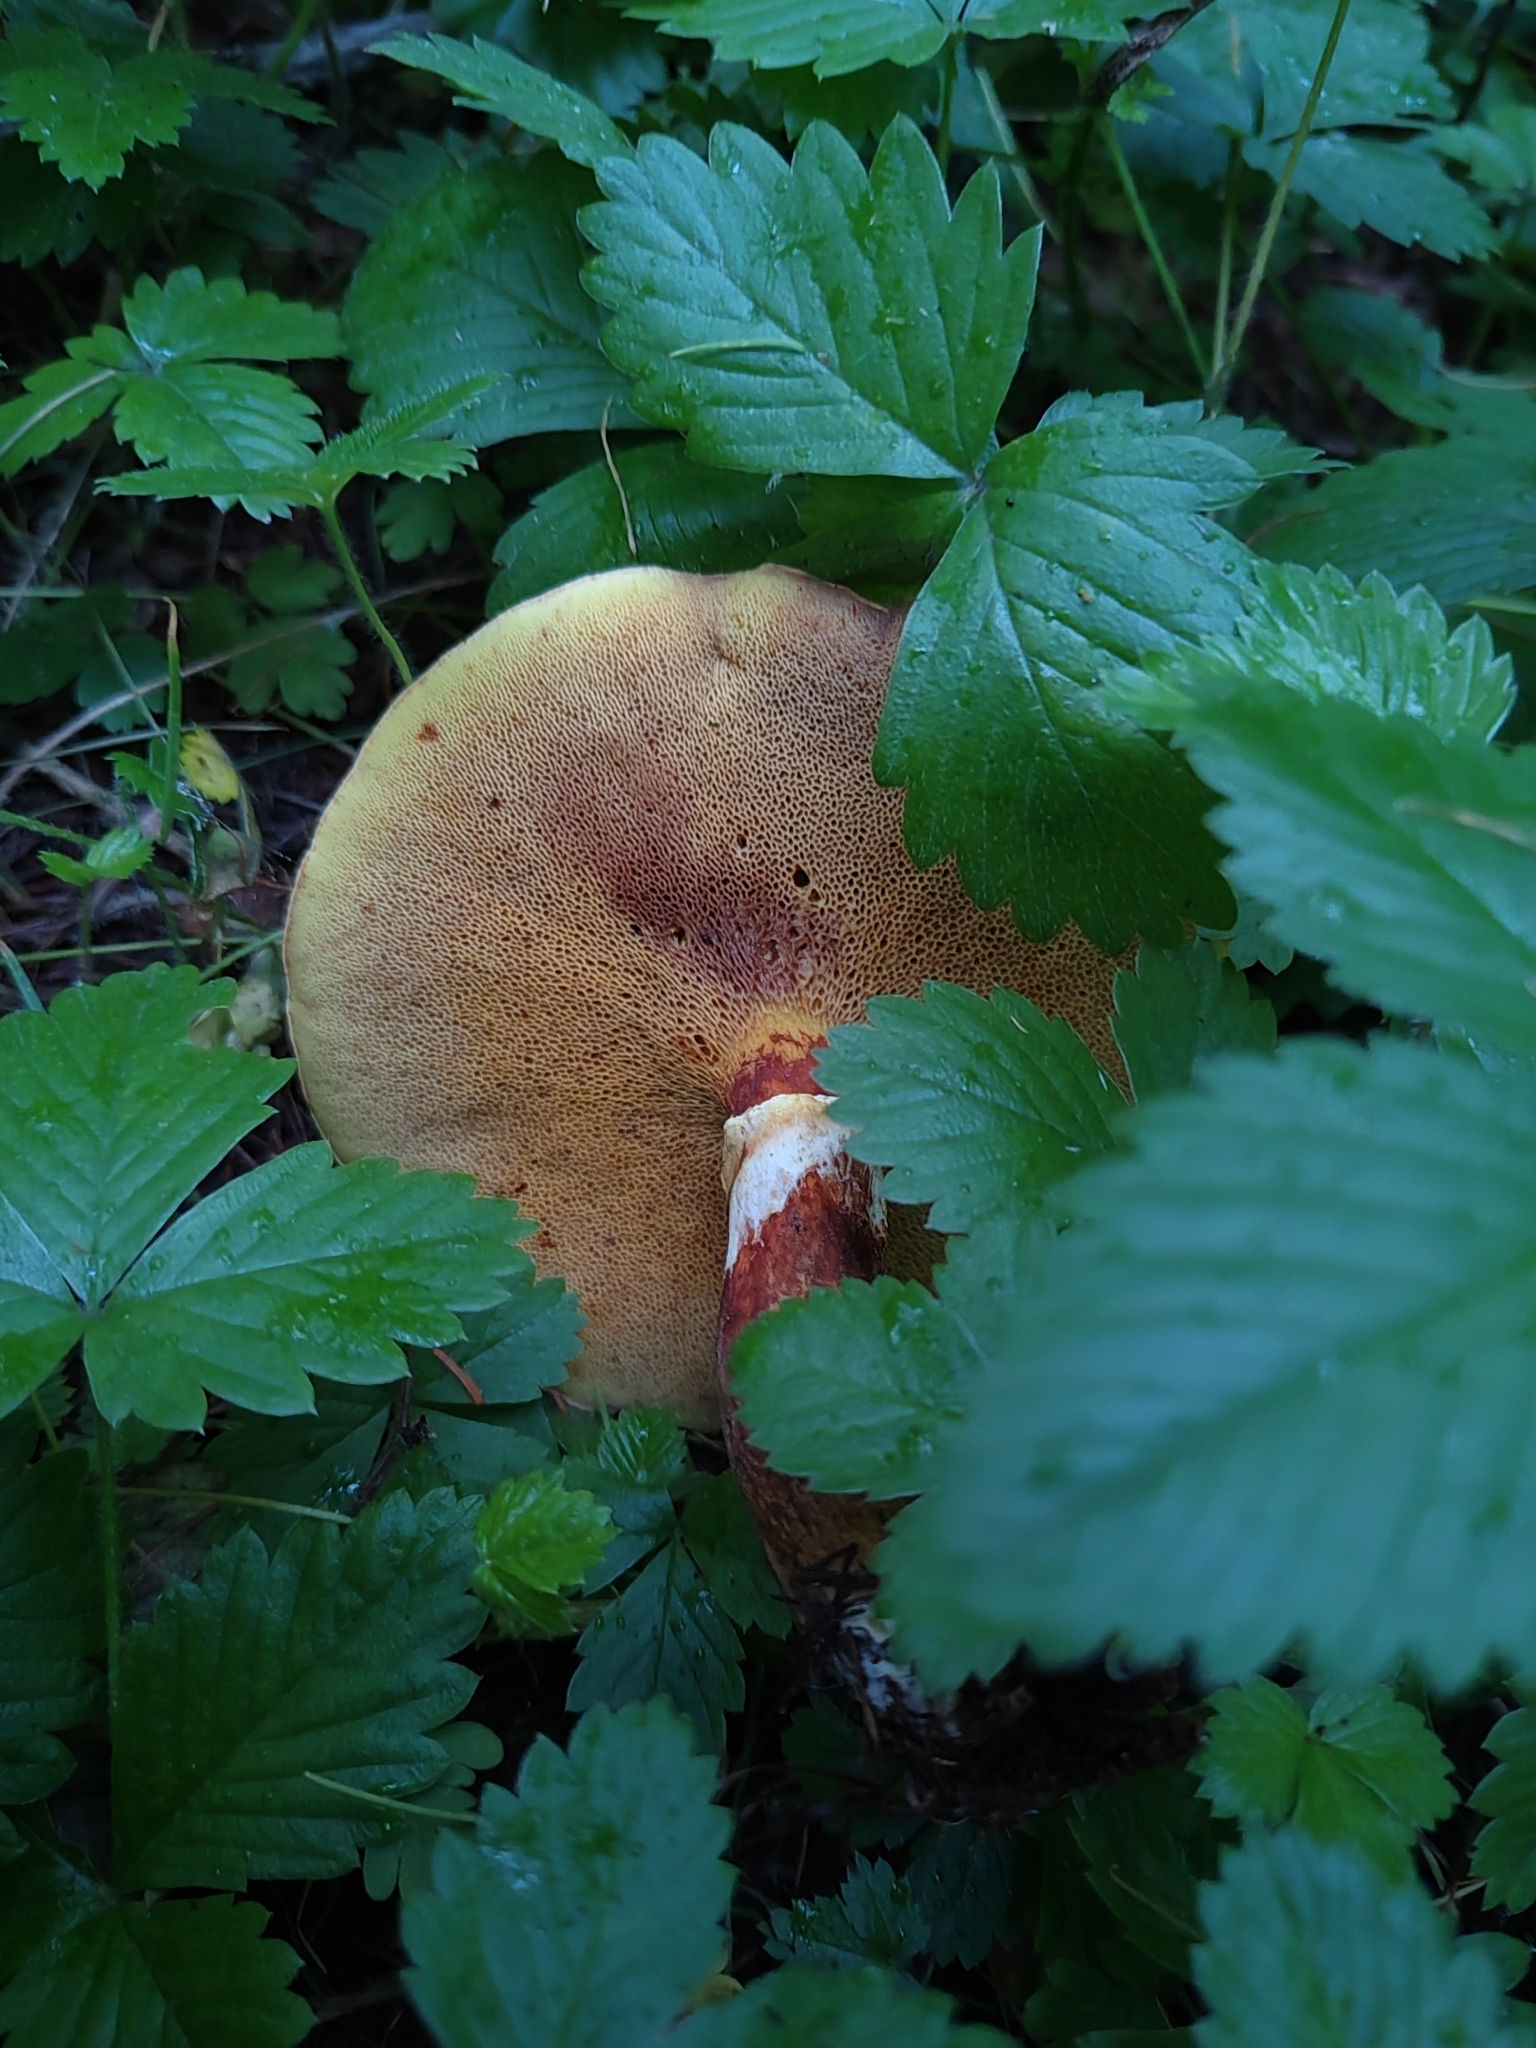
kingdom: Fungi
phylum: Basidiomycota
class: Agaricomycetes
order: Boletales
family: Suillaceae
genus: Suillus
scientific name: Suillus grevillei
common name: Larch bolete
